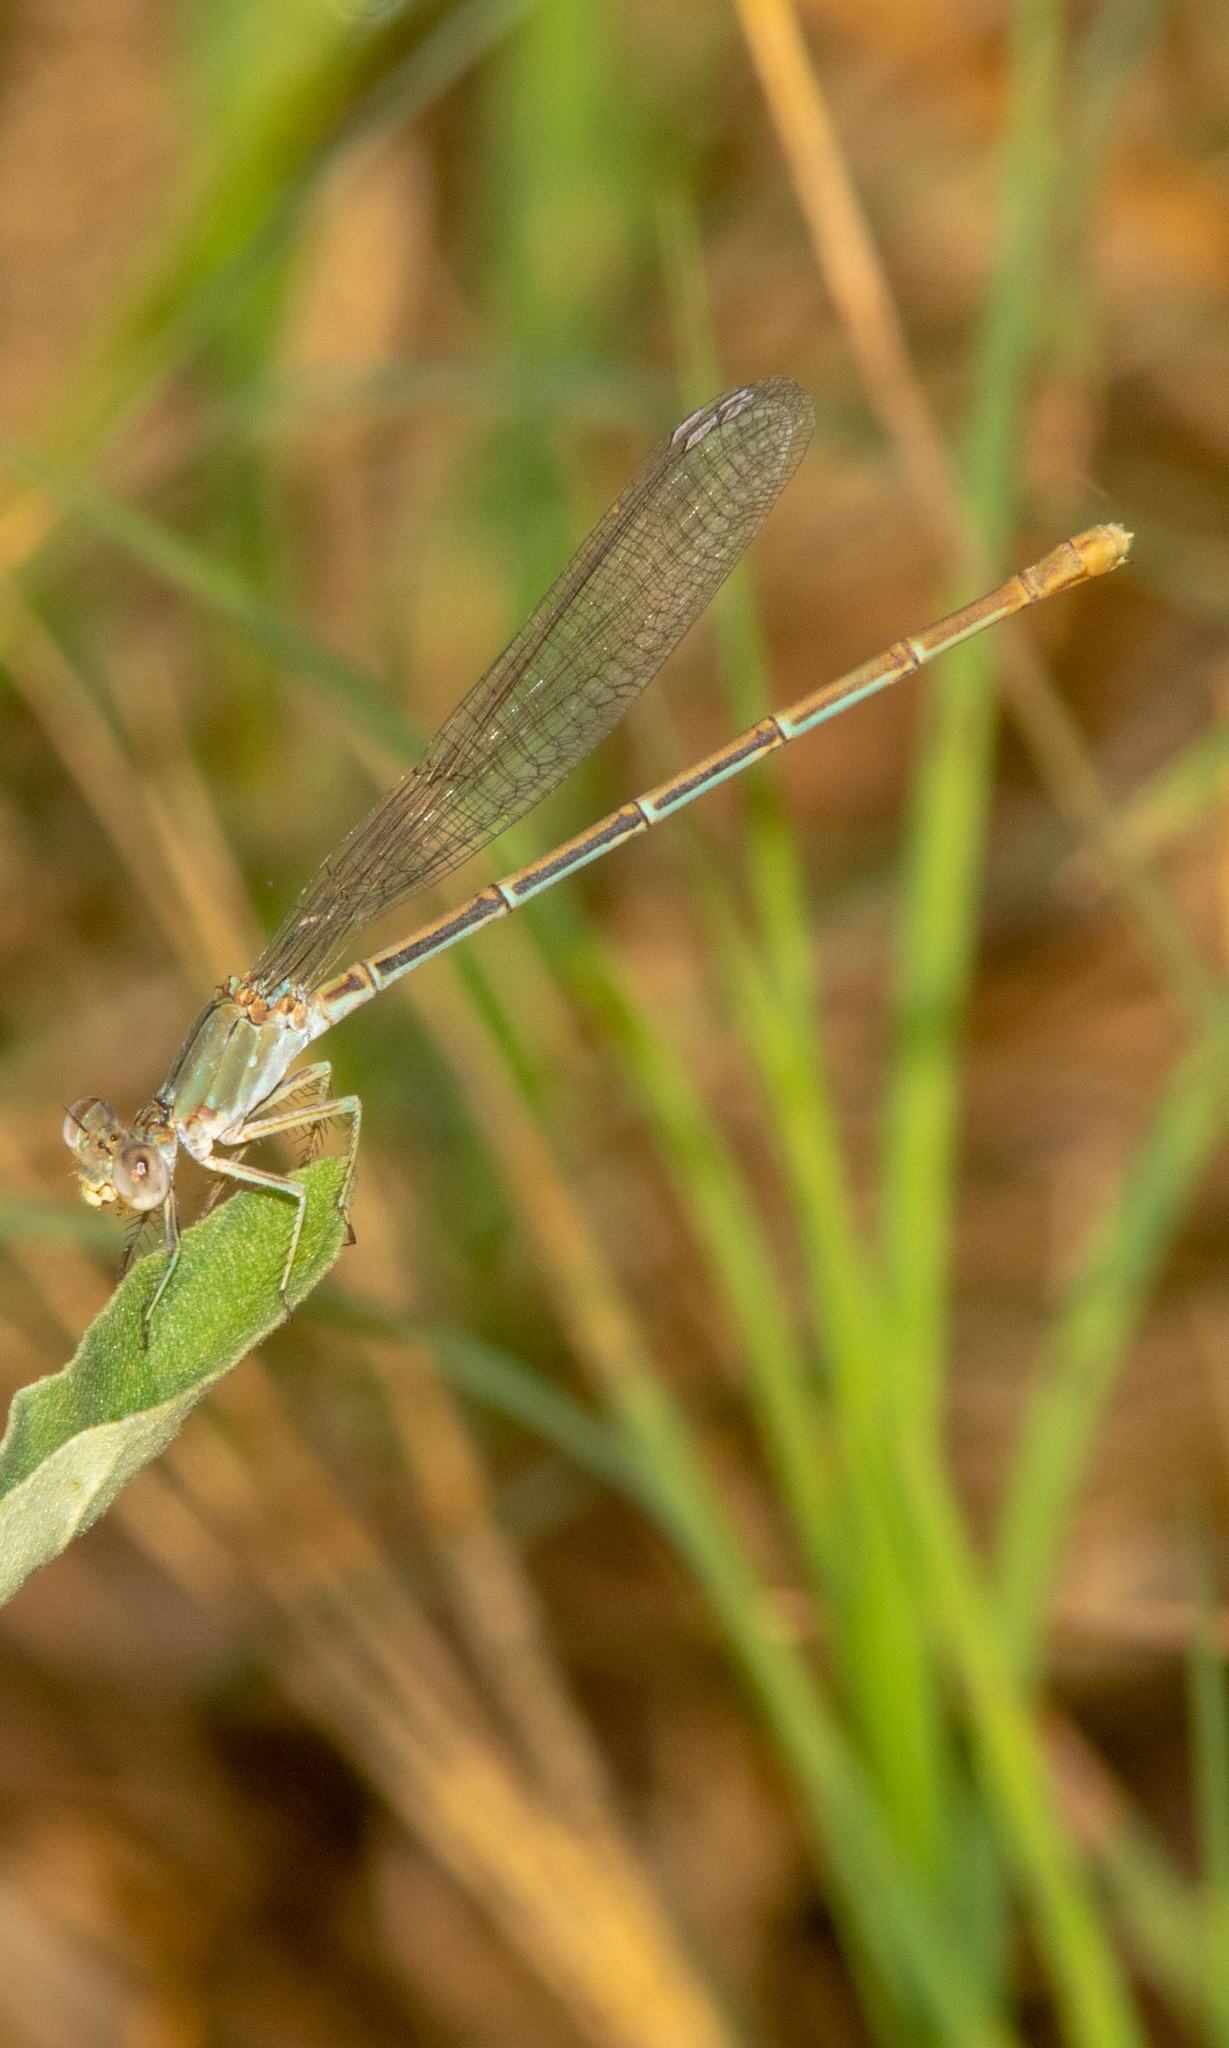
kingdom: Animalia
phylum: Arthropoda
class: Insecta
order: Odonata
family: Coenagrionidae
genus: Argia
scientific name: Argia moesta
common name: Powdered dancer
